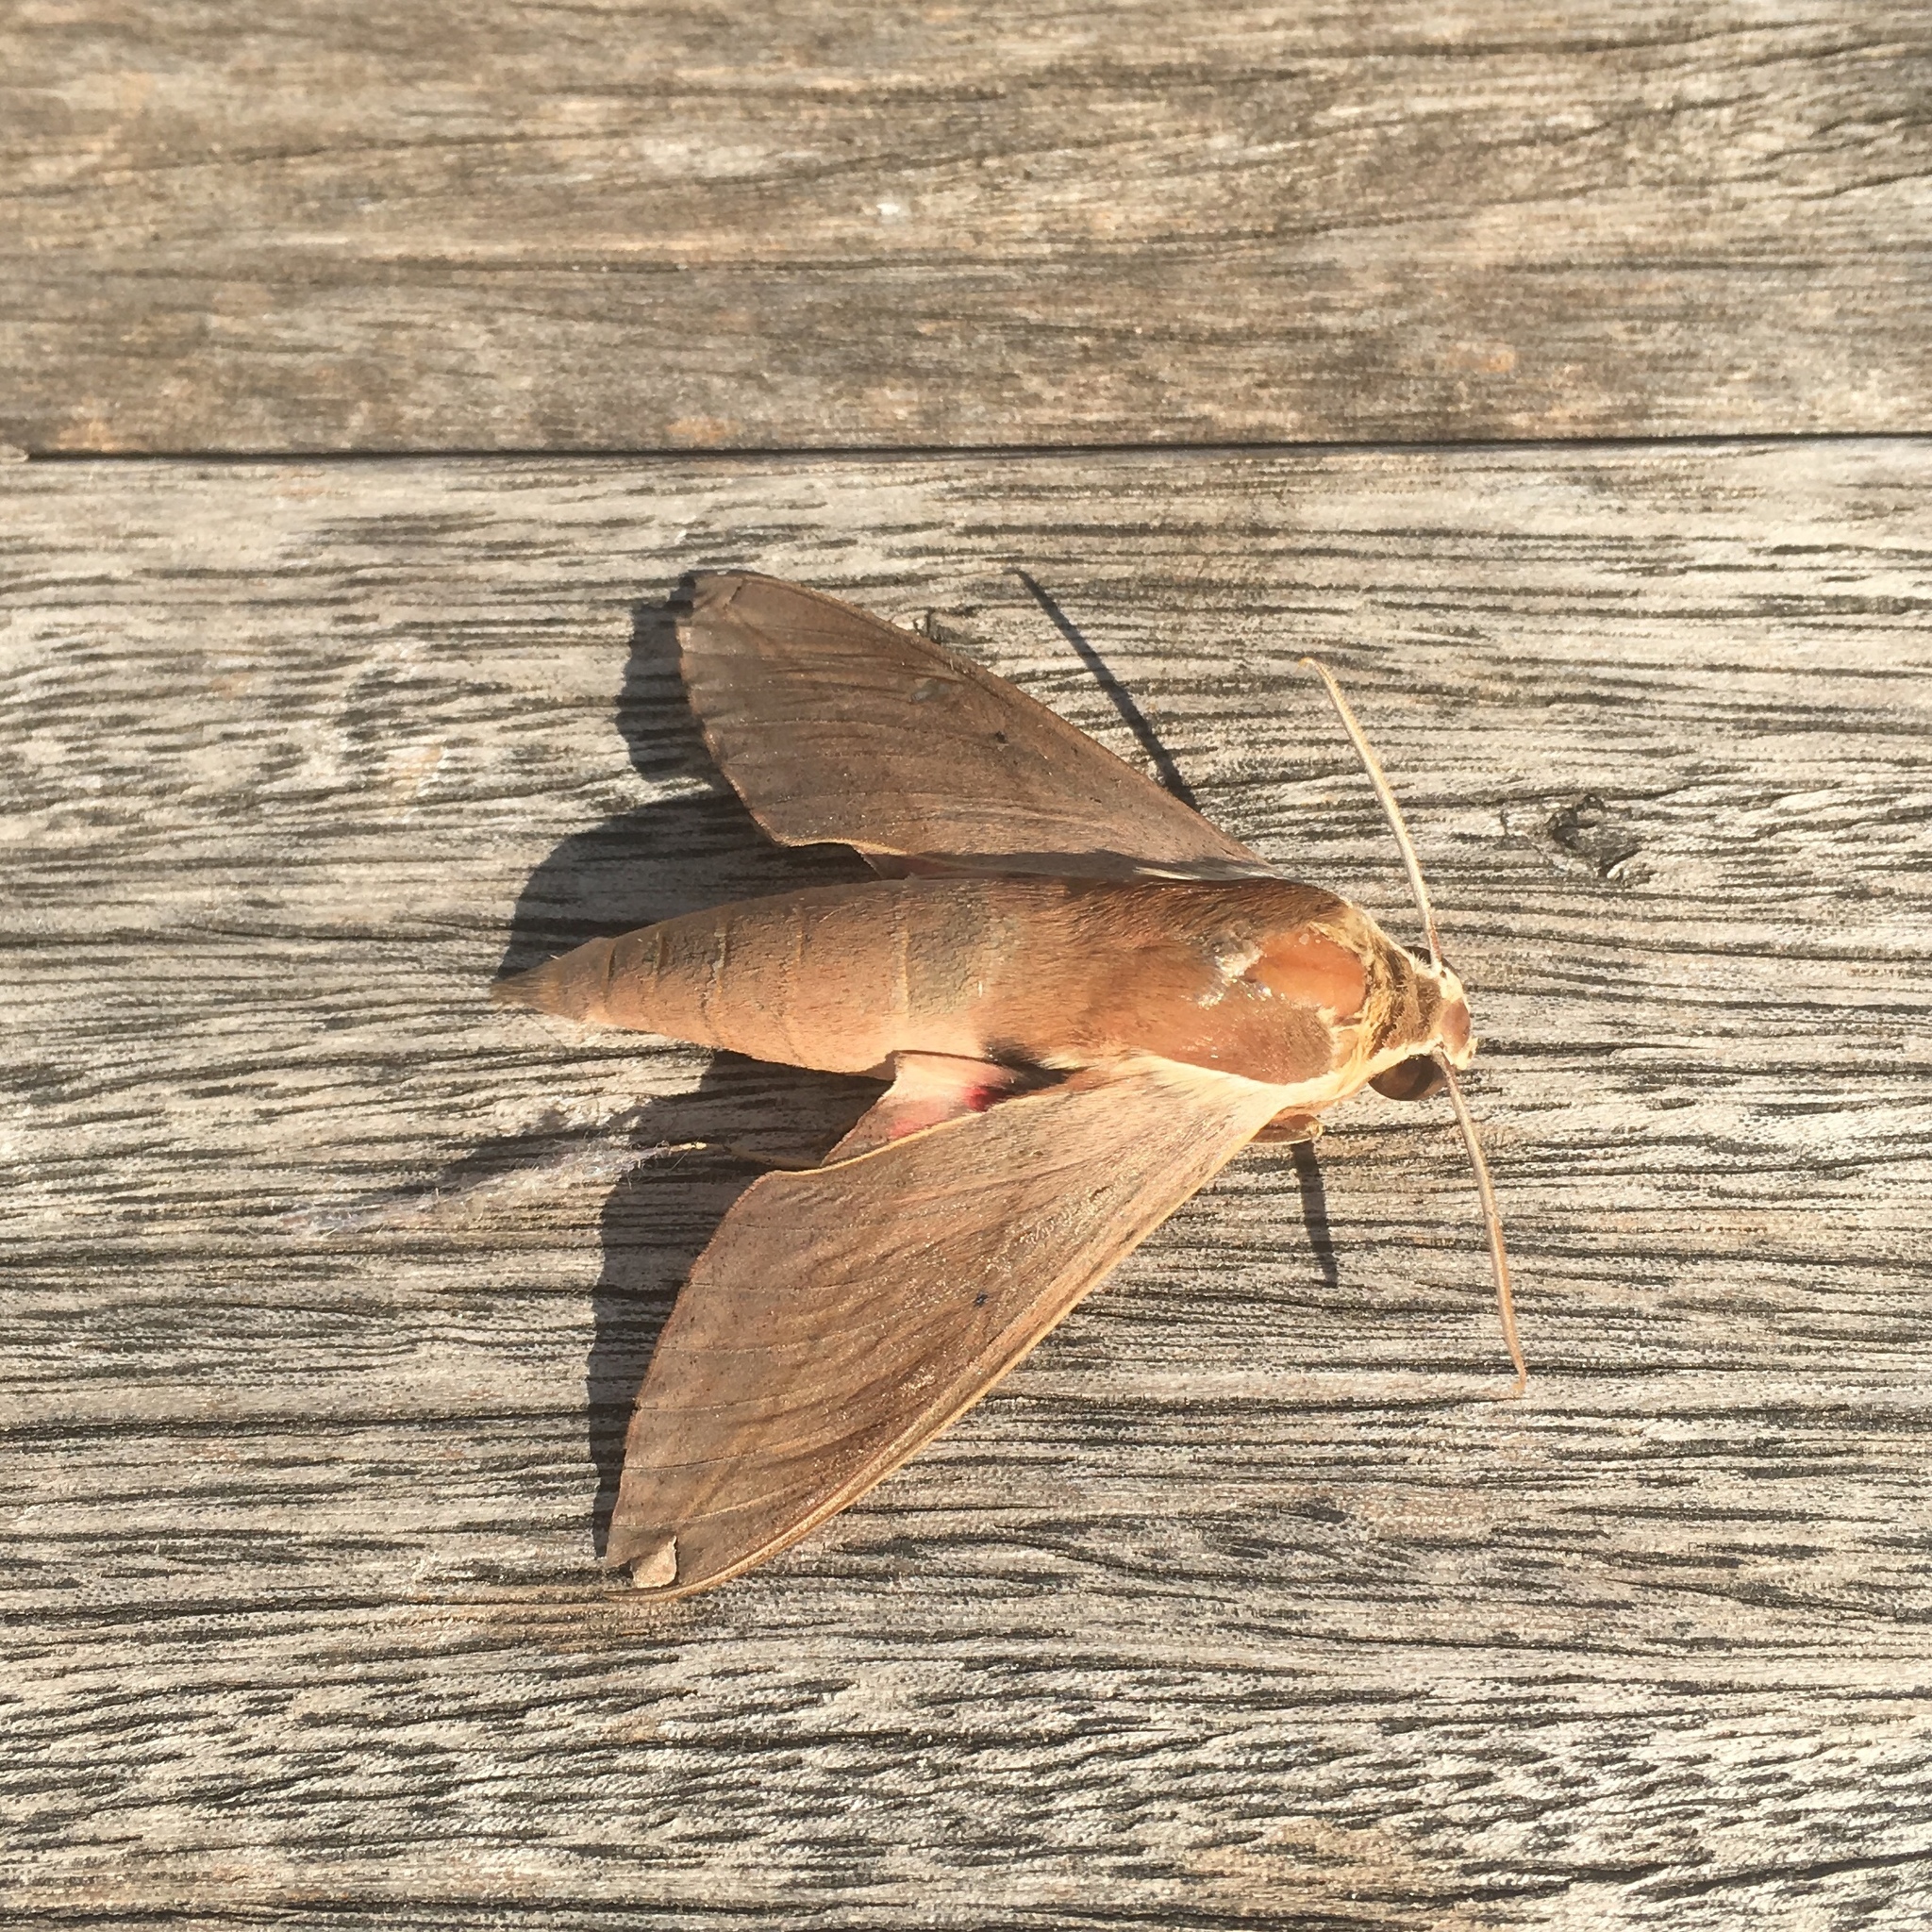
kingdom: Animalia
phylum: Arthropoda
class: Insecta
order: Lepidoptera
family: Sphingidae
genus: Theretra
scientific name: Theretra alecto
